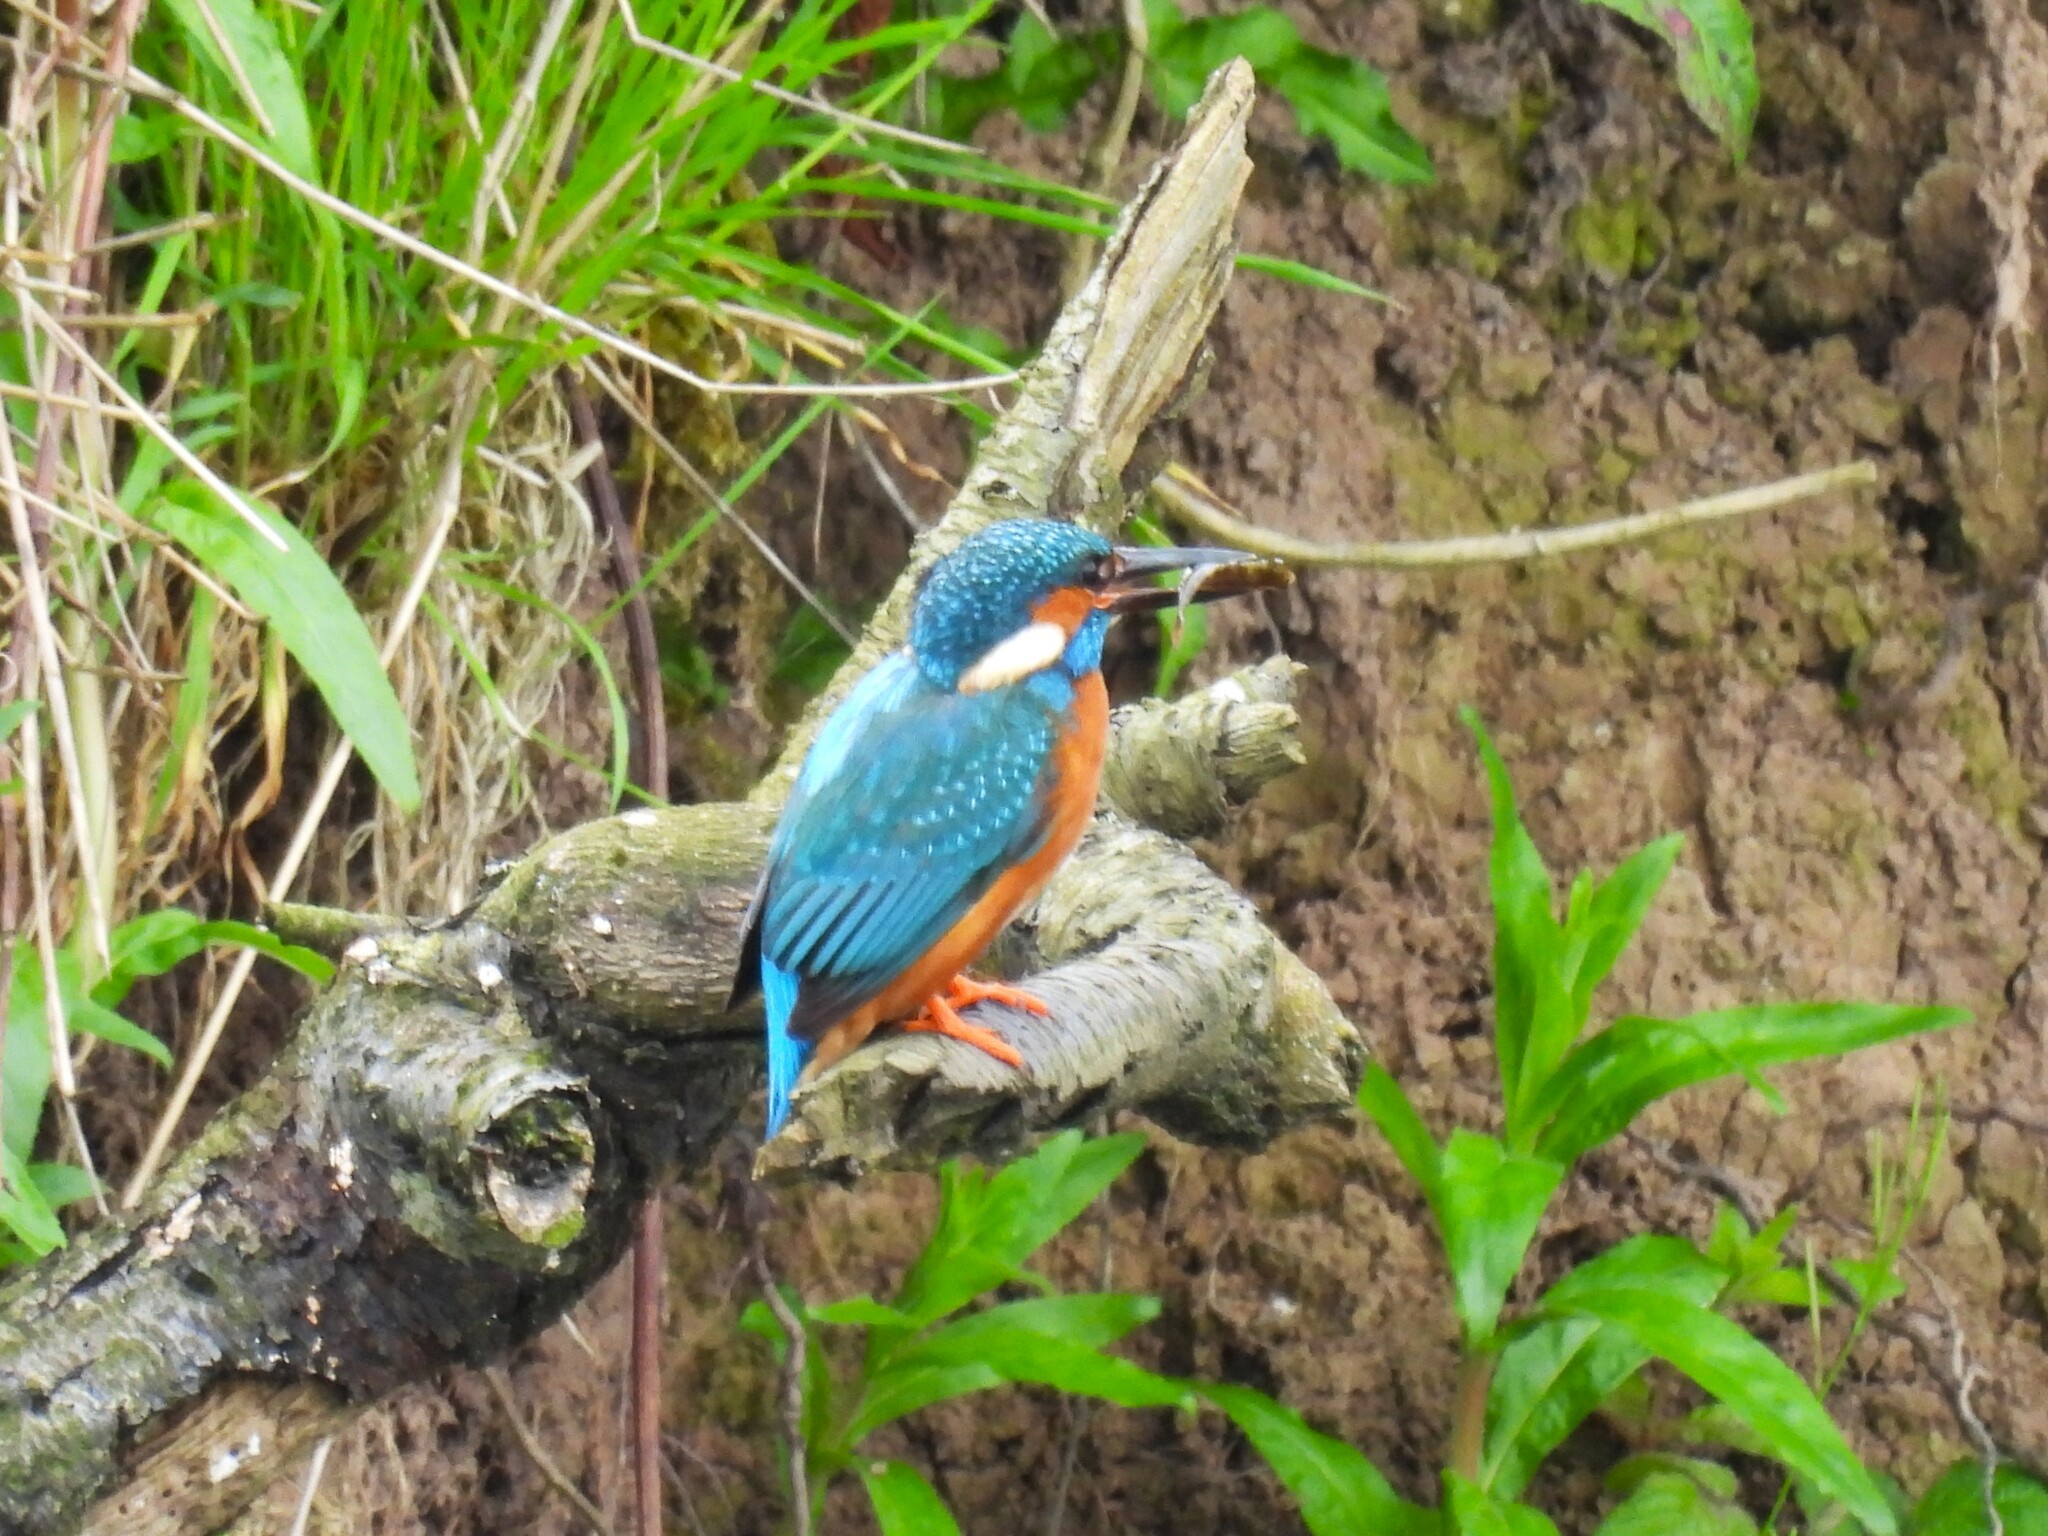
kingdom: Animalia
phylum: Chordata
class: Aves
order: Coraciiformes
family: Alcedinidae
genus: Alcedo
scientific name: Alcedo atthis
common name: Common kingfisher
